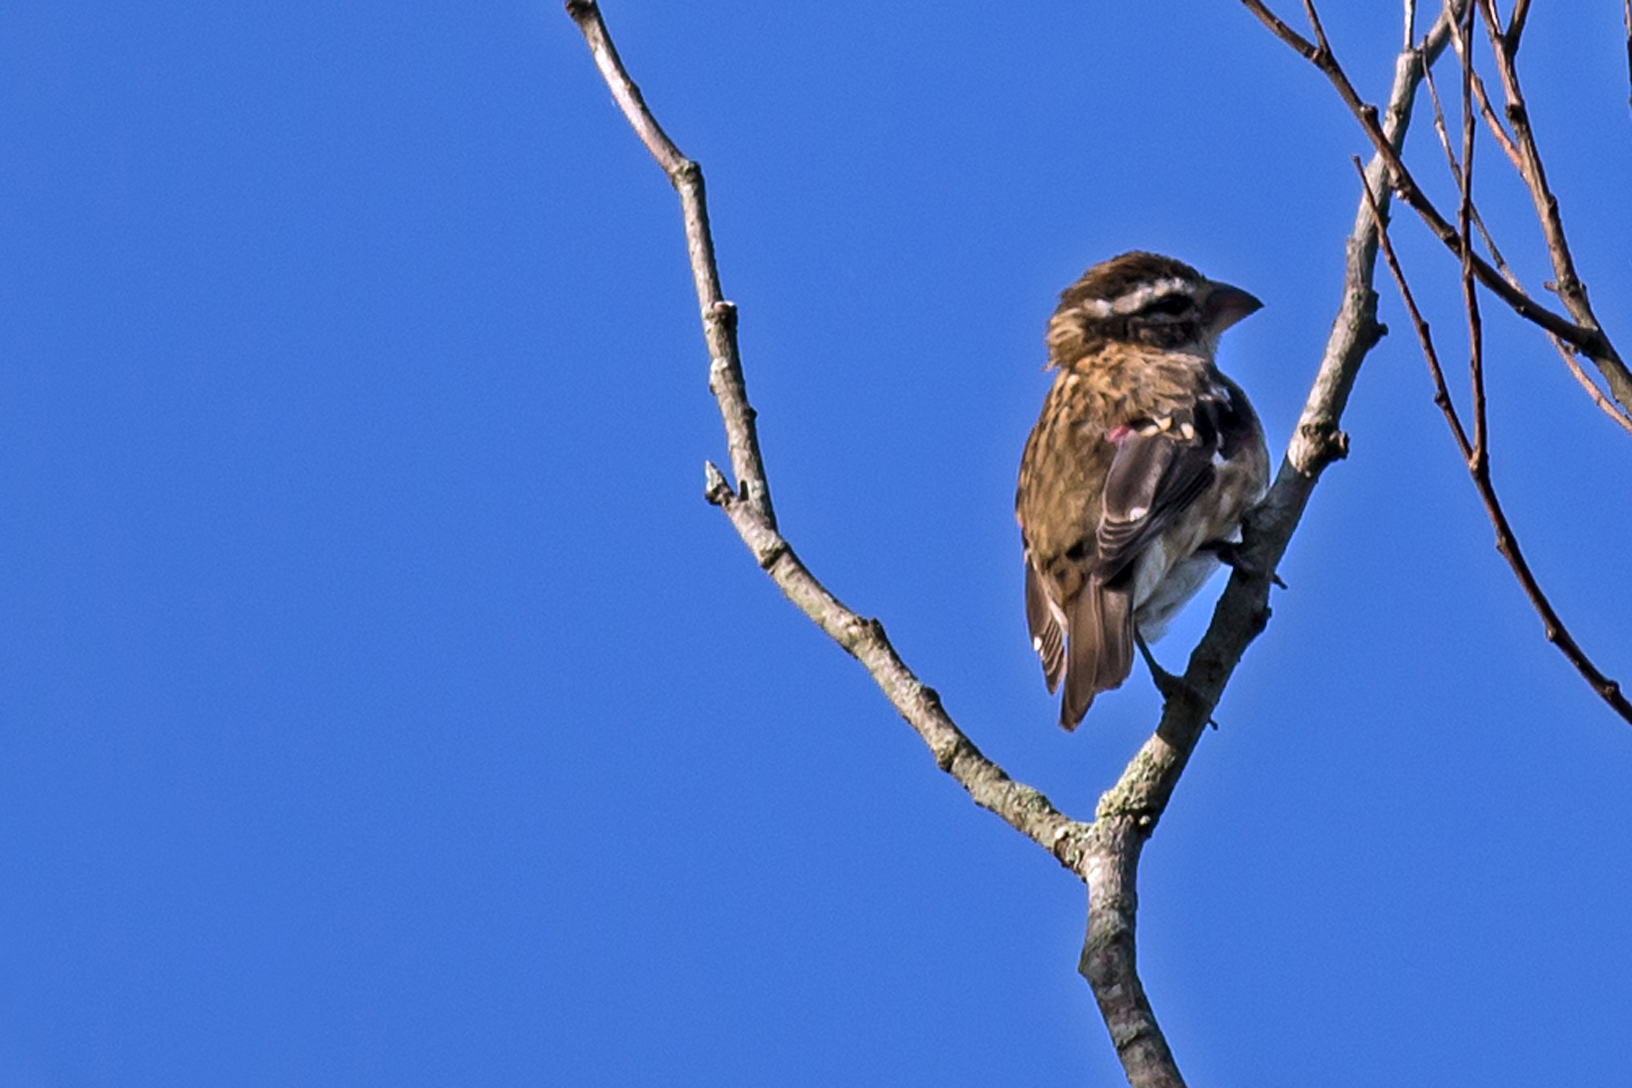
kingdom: Animalia
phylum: Chordata
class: Aves
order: Passeriformes
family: Cardinalidae
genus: Pheucticus
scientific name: Pheucticus ludovicianus
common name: Rose-breasted grosbeak
